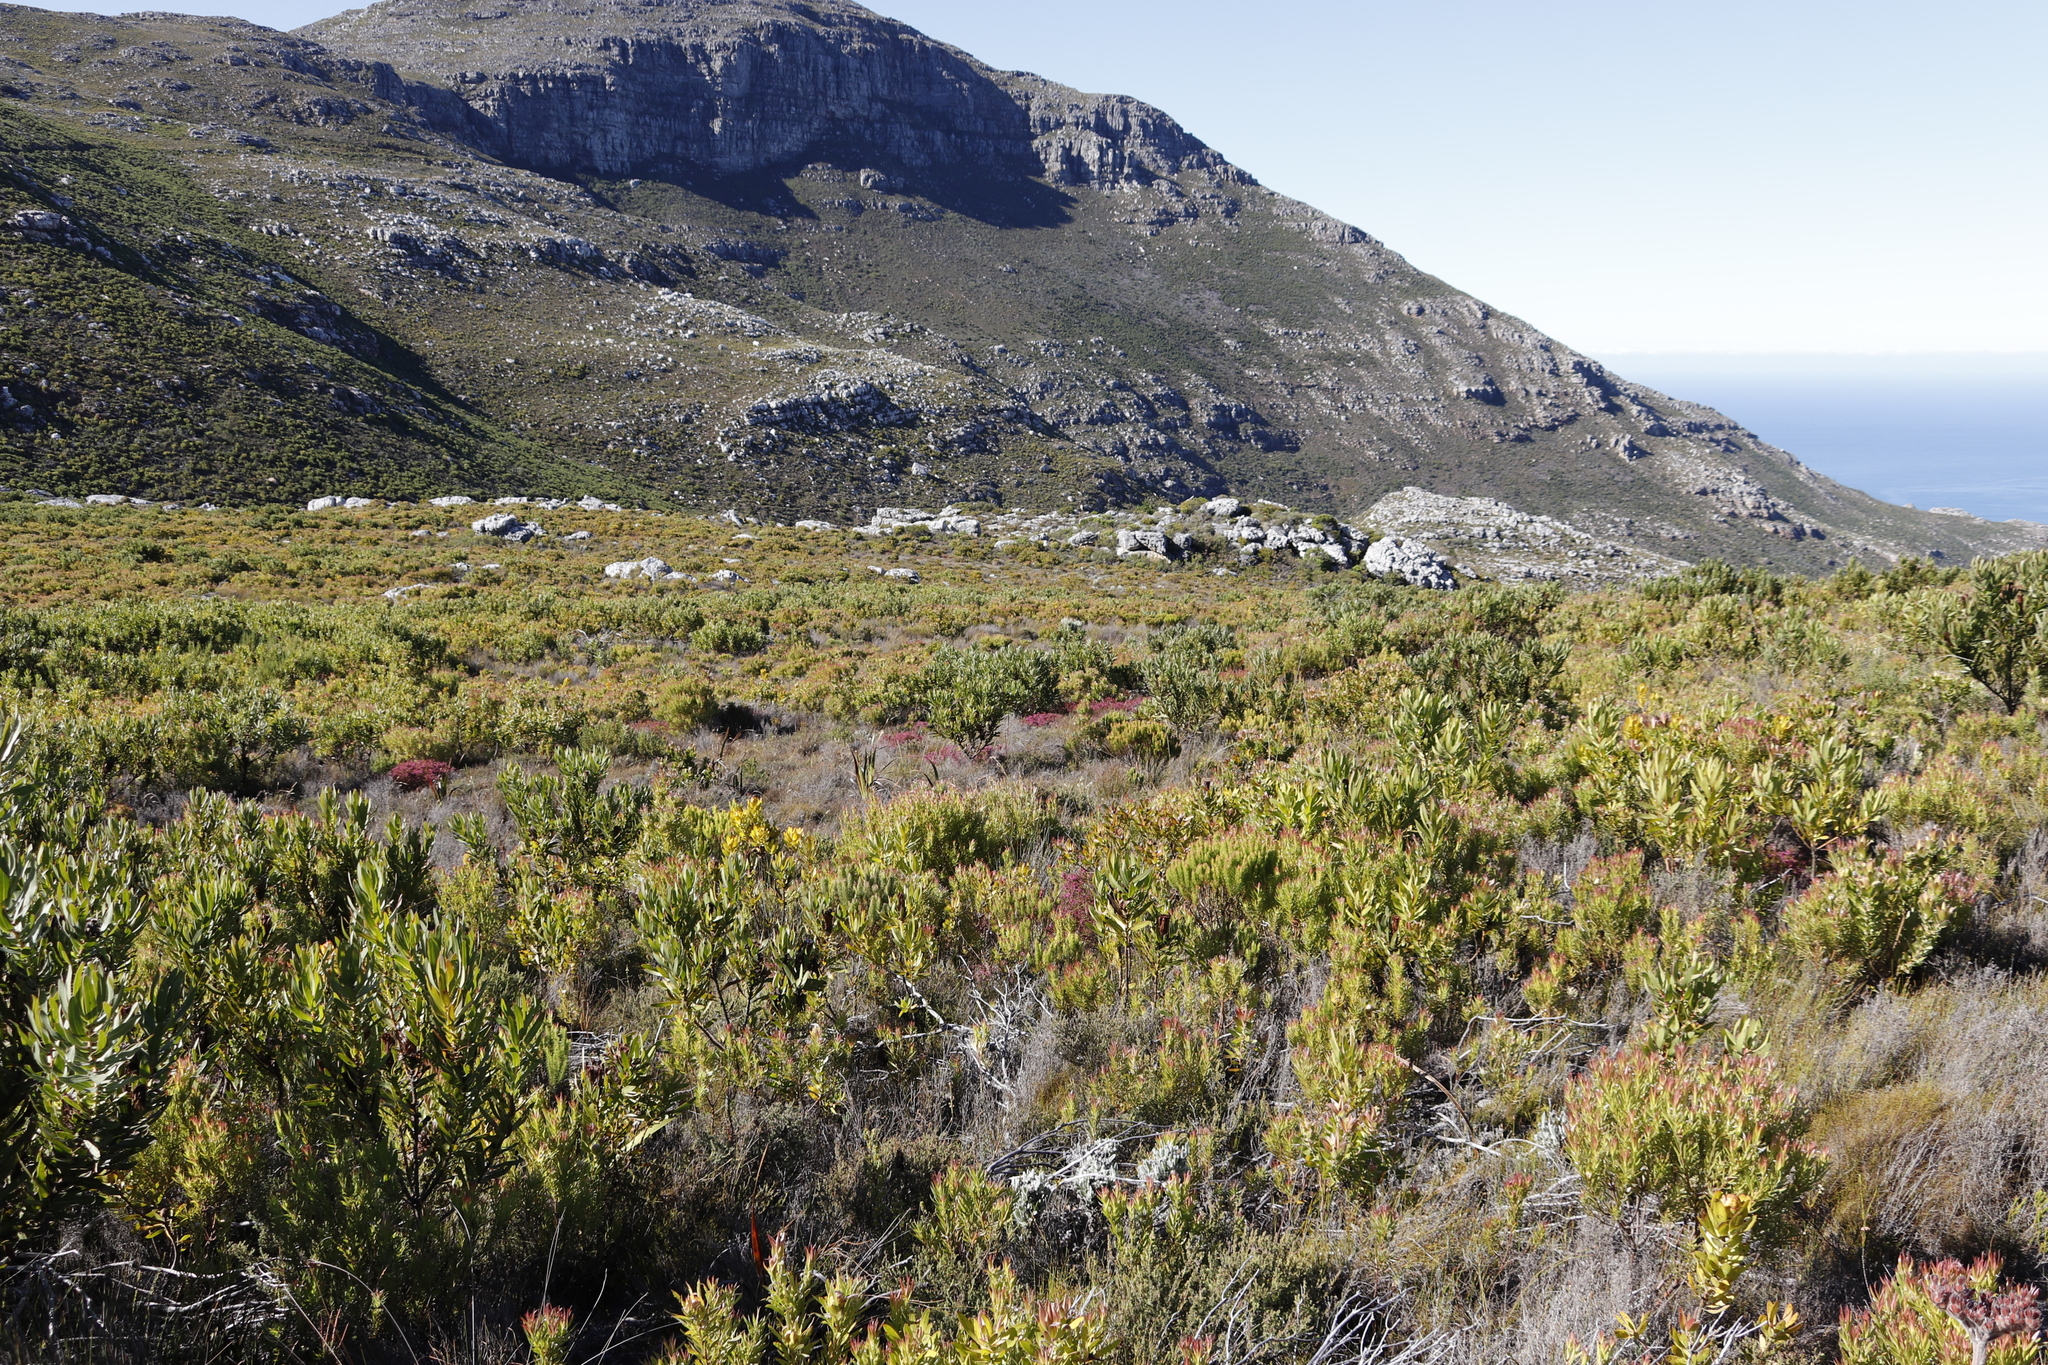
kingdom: Plantae
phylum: Tracheophyta
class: Magnoliopsida
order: Proteales
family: Proteaceae
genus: Protea
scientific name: Protea lepidocarpodendron
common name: Black-bearded protea
